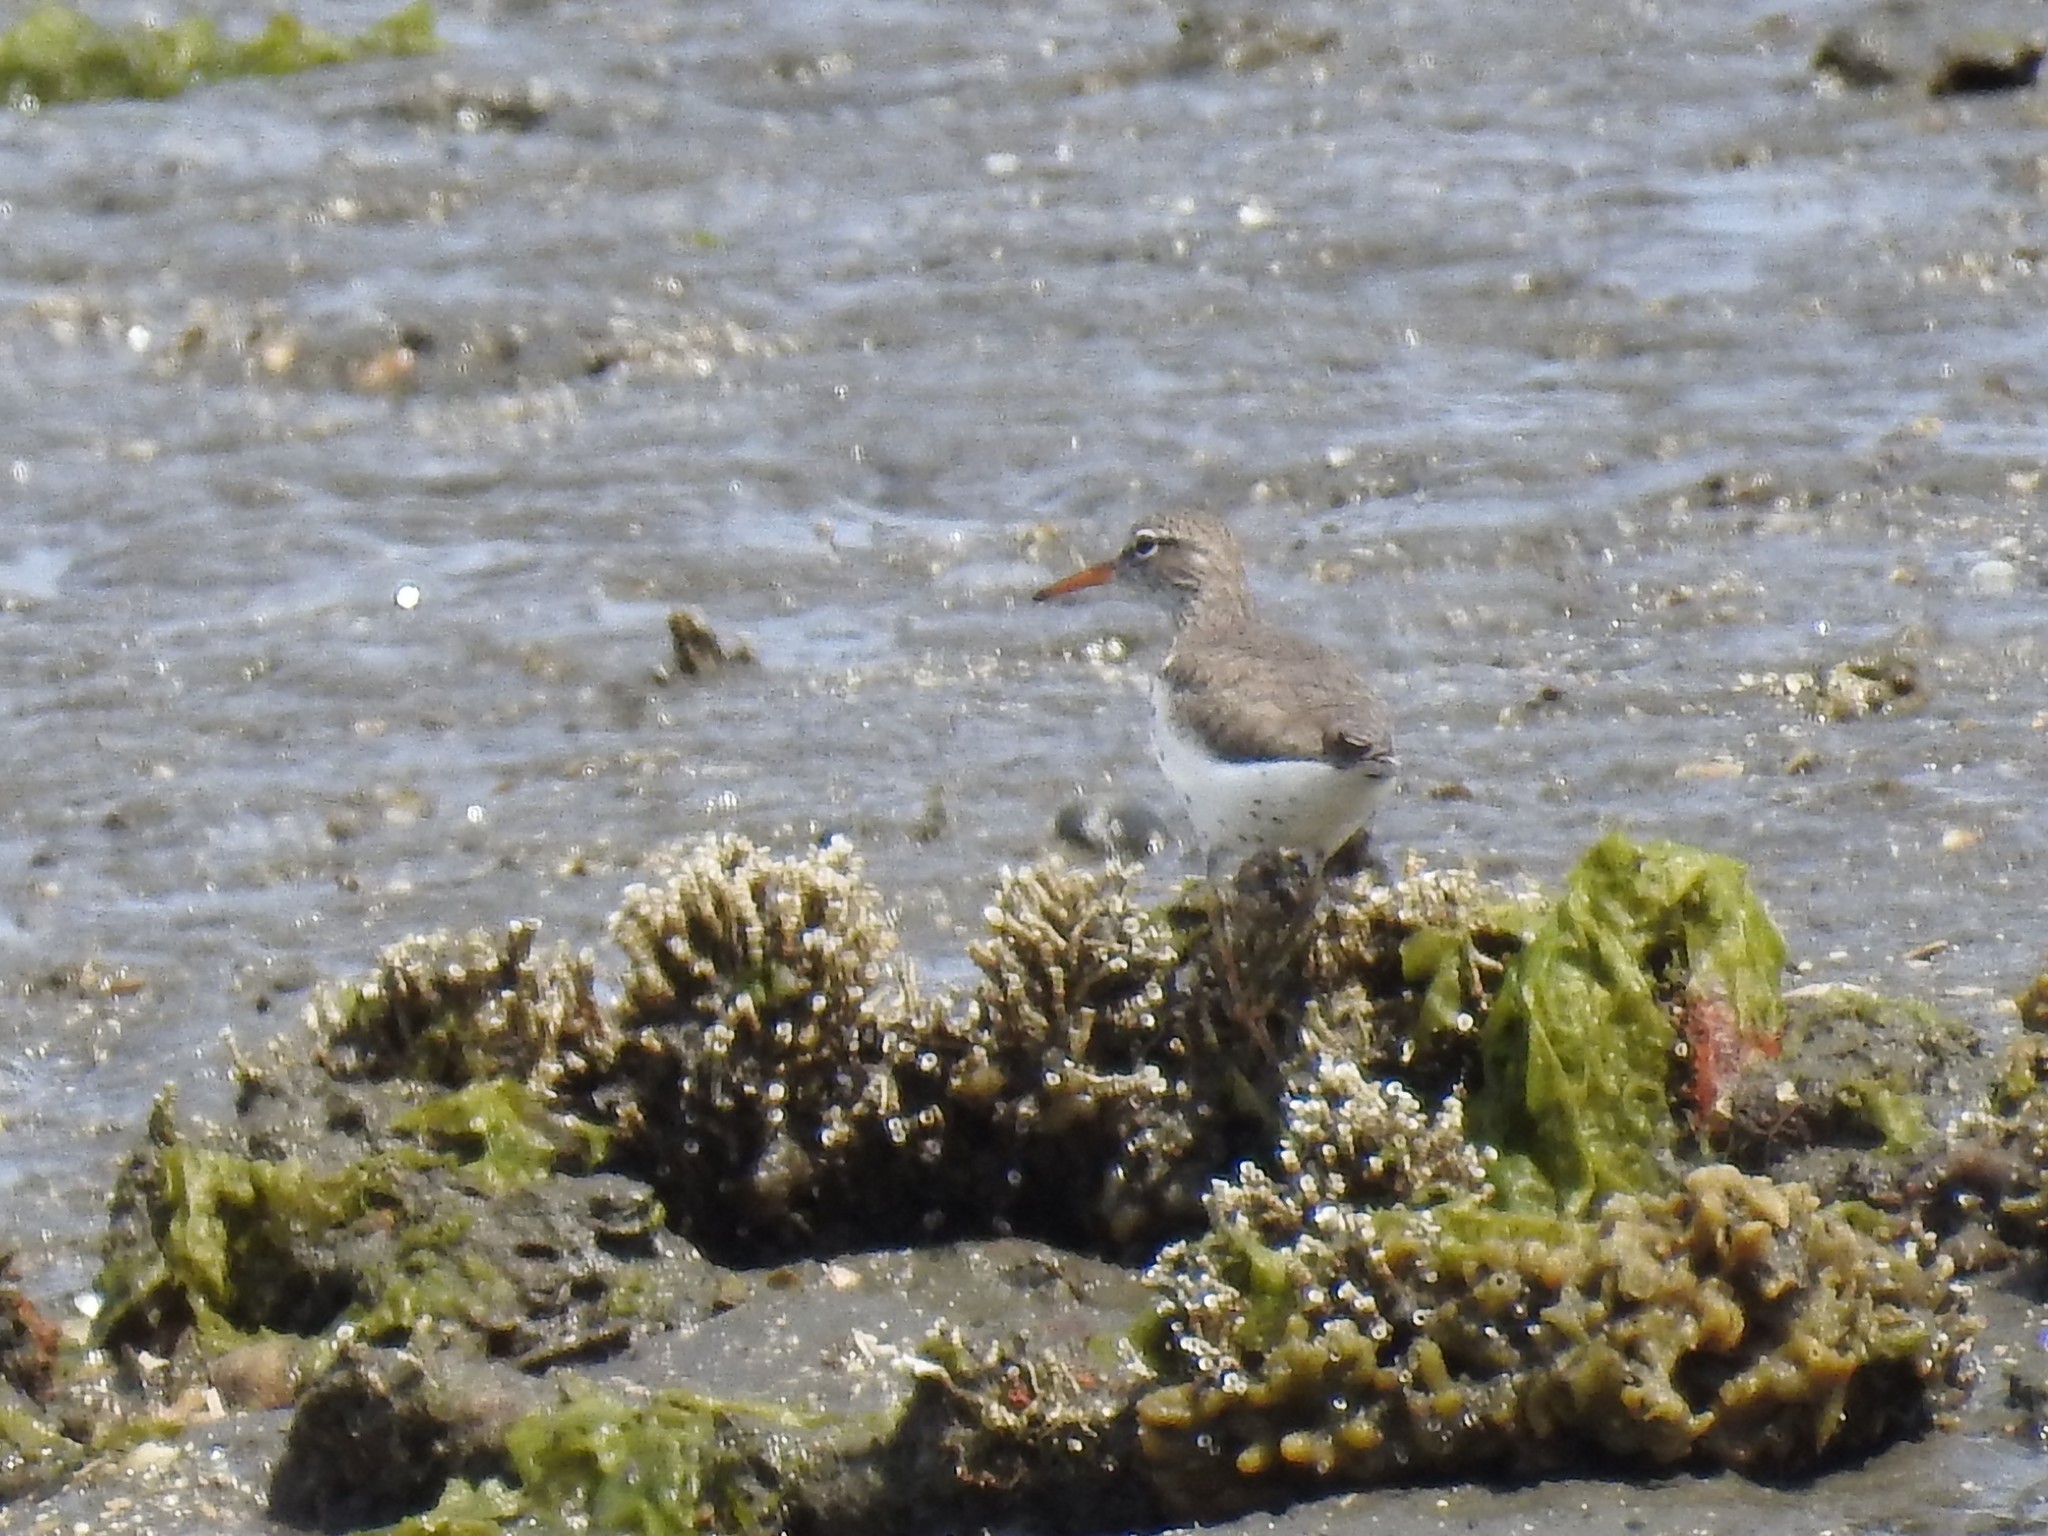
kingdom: Animalia
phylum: Chordata
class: Aves
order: Charadriiformes
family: Scolopacidae
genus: Actitis
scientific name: Actitis macularius
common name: Spotted sandpiper
